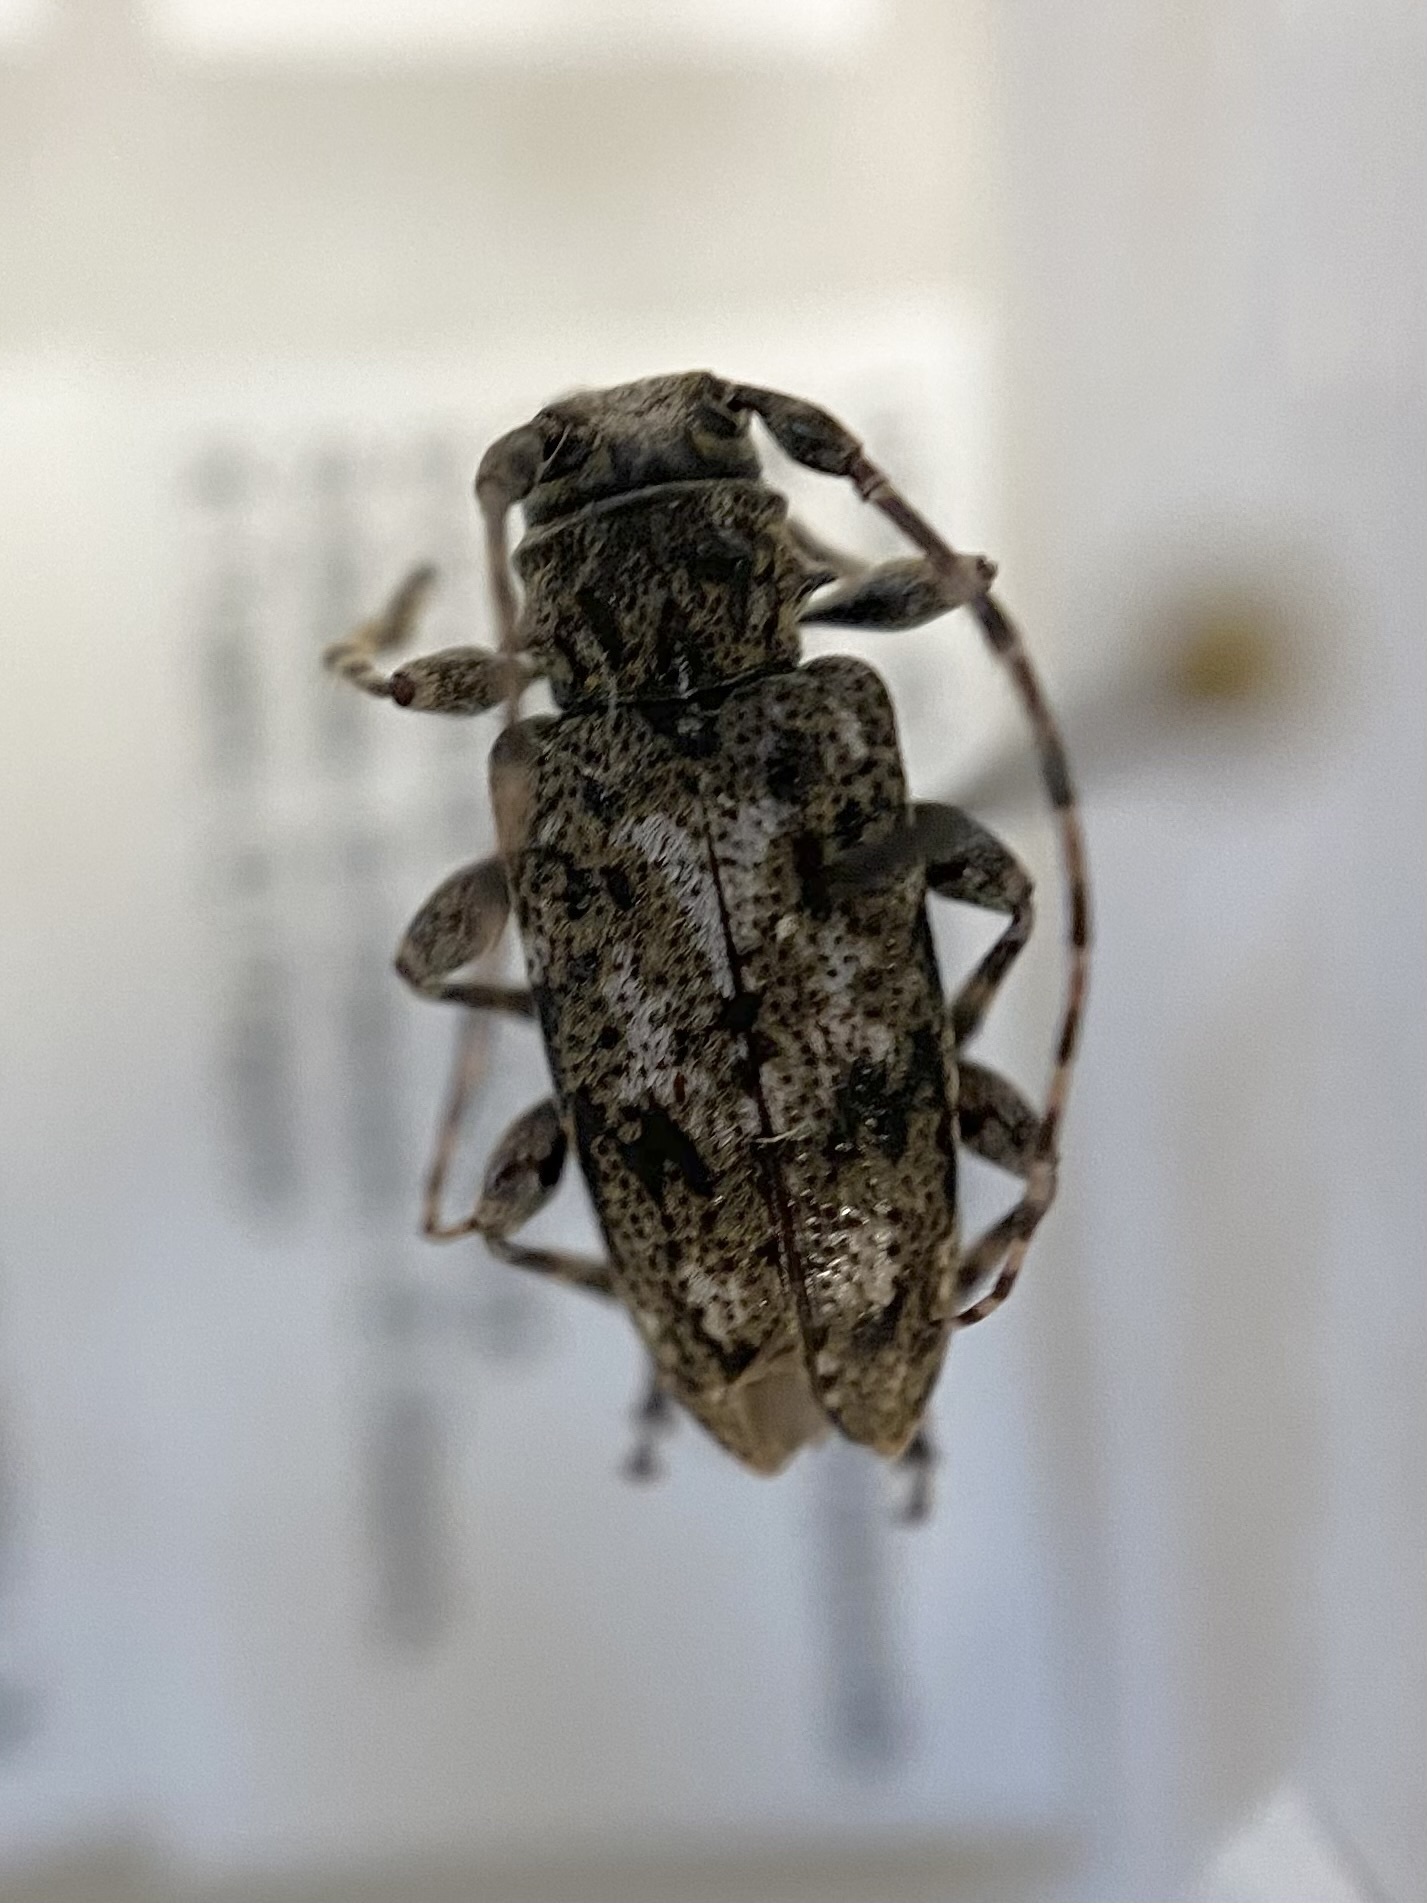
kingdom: Animalia
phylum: Arthropoda
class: Insecta
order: Coleoptera
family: Cerambycidae
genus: Aegomorphus
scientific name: Aegomorphus modestus
